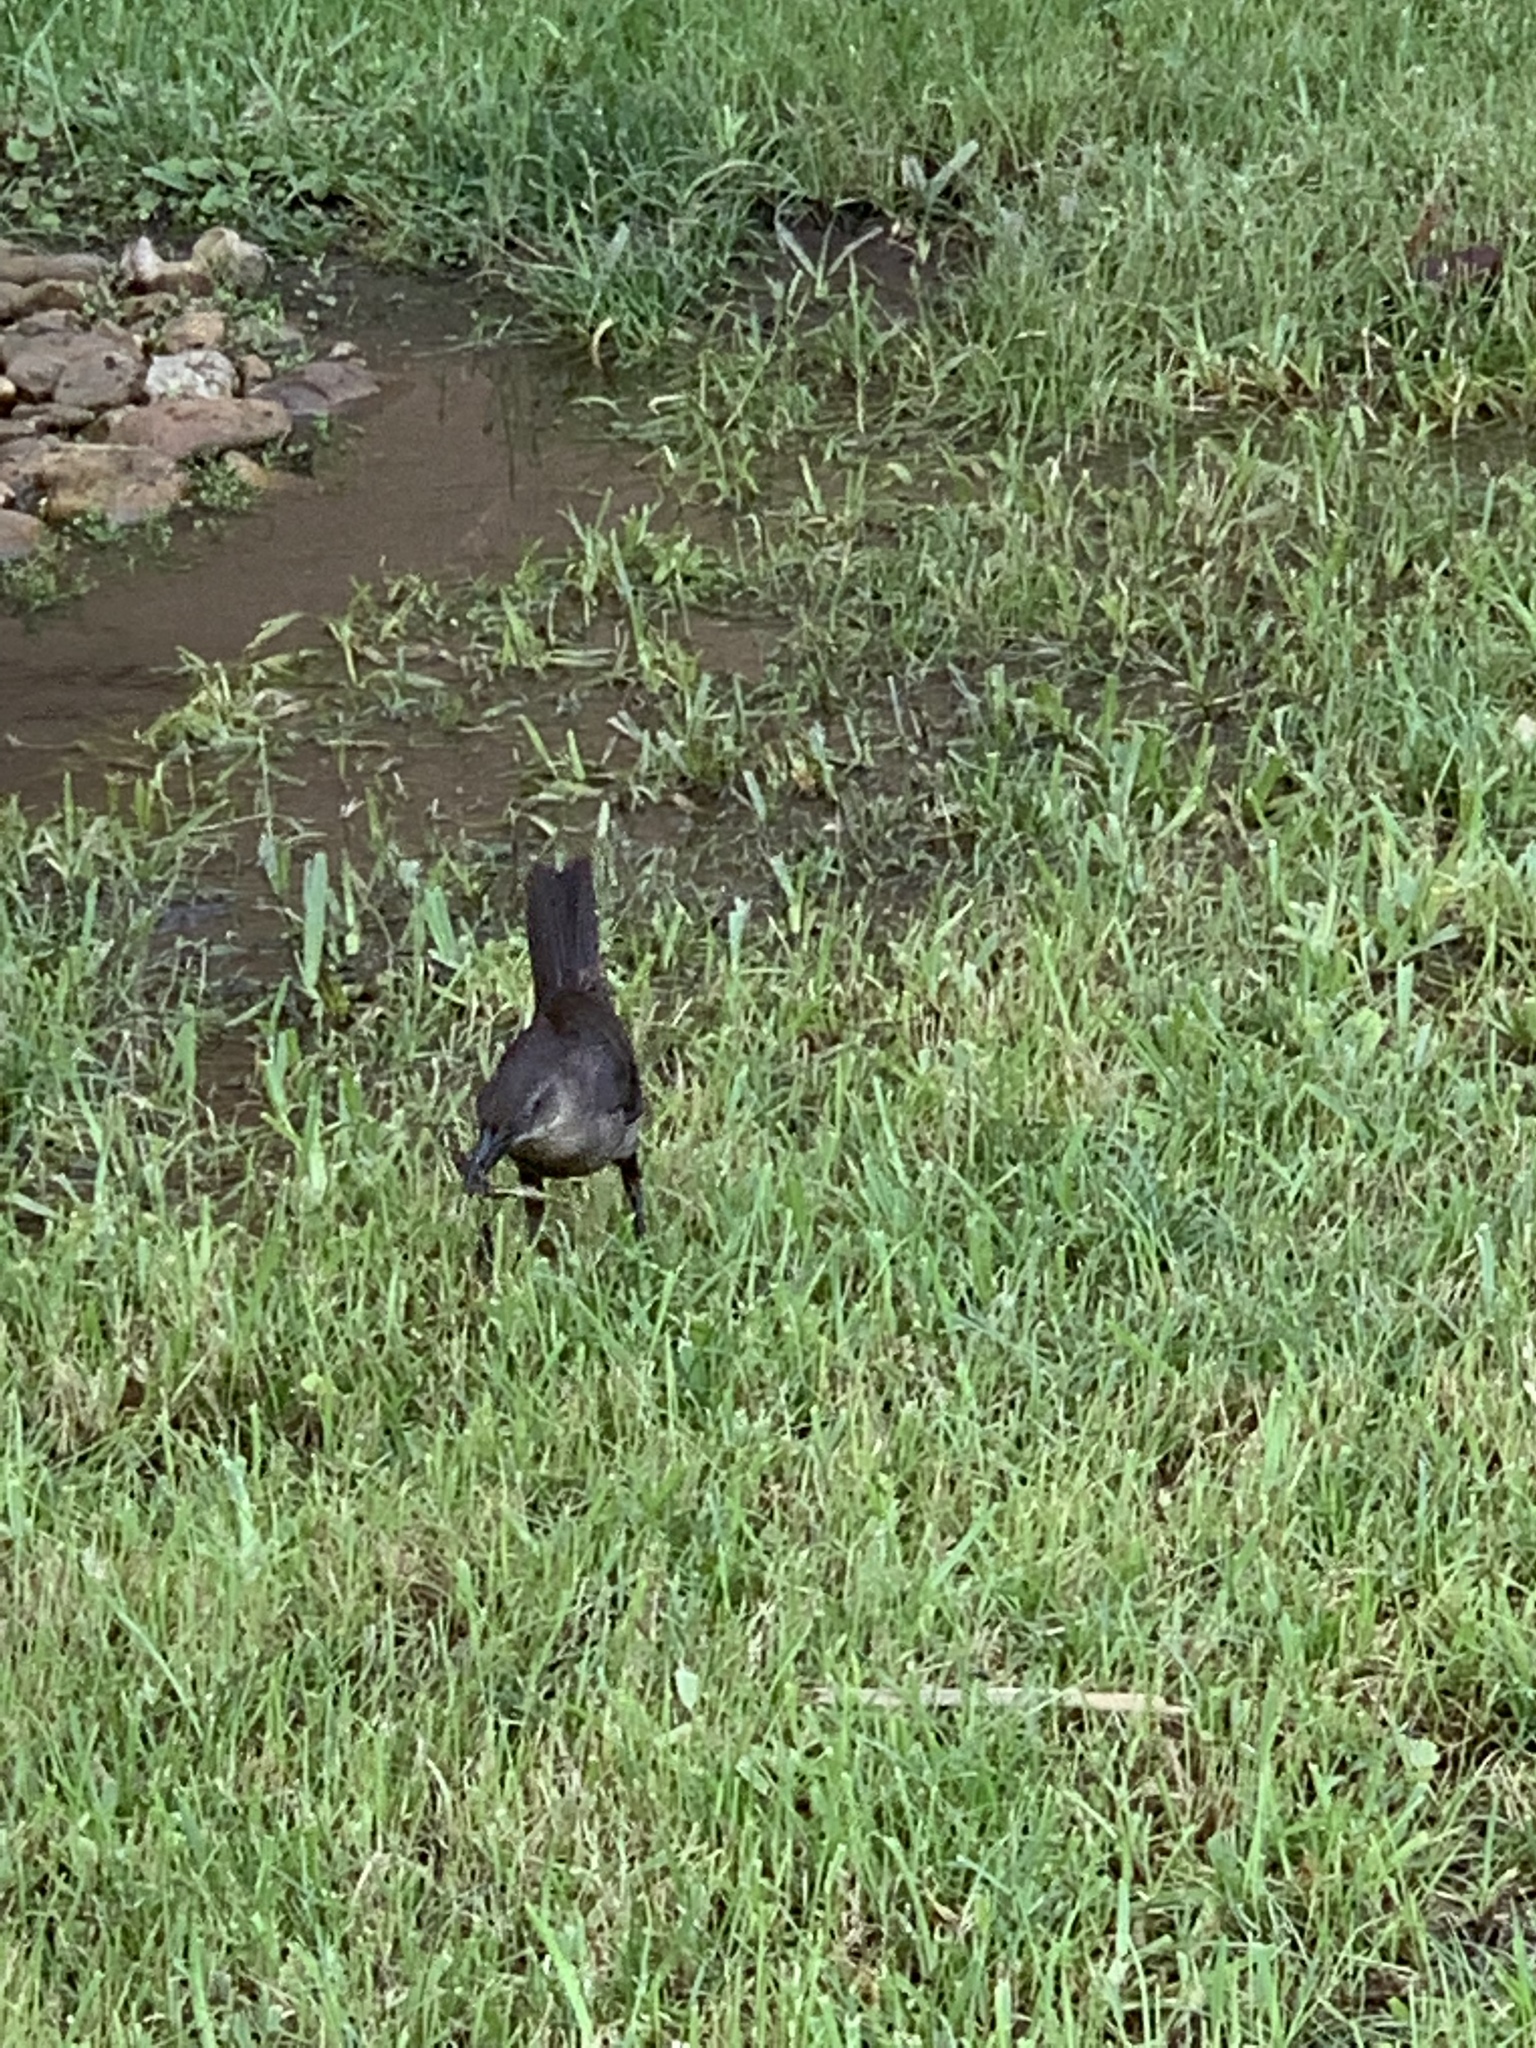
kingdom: Animalia
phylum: Chordata
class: Aves
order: Passeriformes
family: Icteridae
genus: Quiscalus
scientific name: Quiscalus mexicanus
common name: Great-tailed grackle
